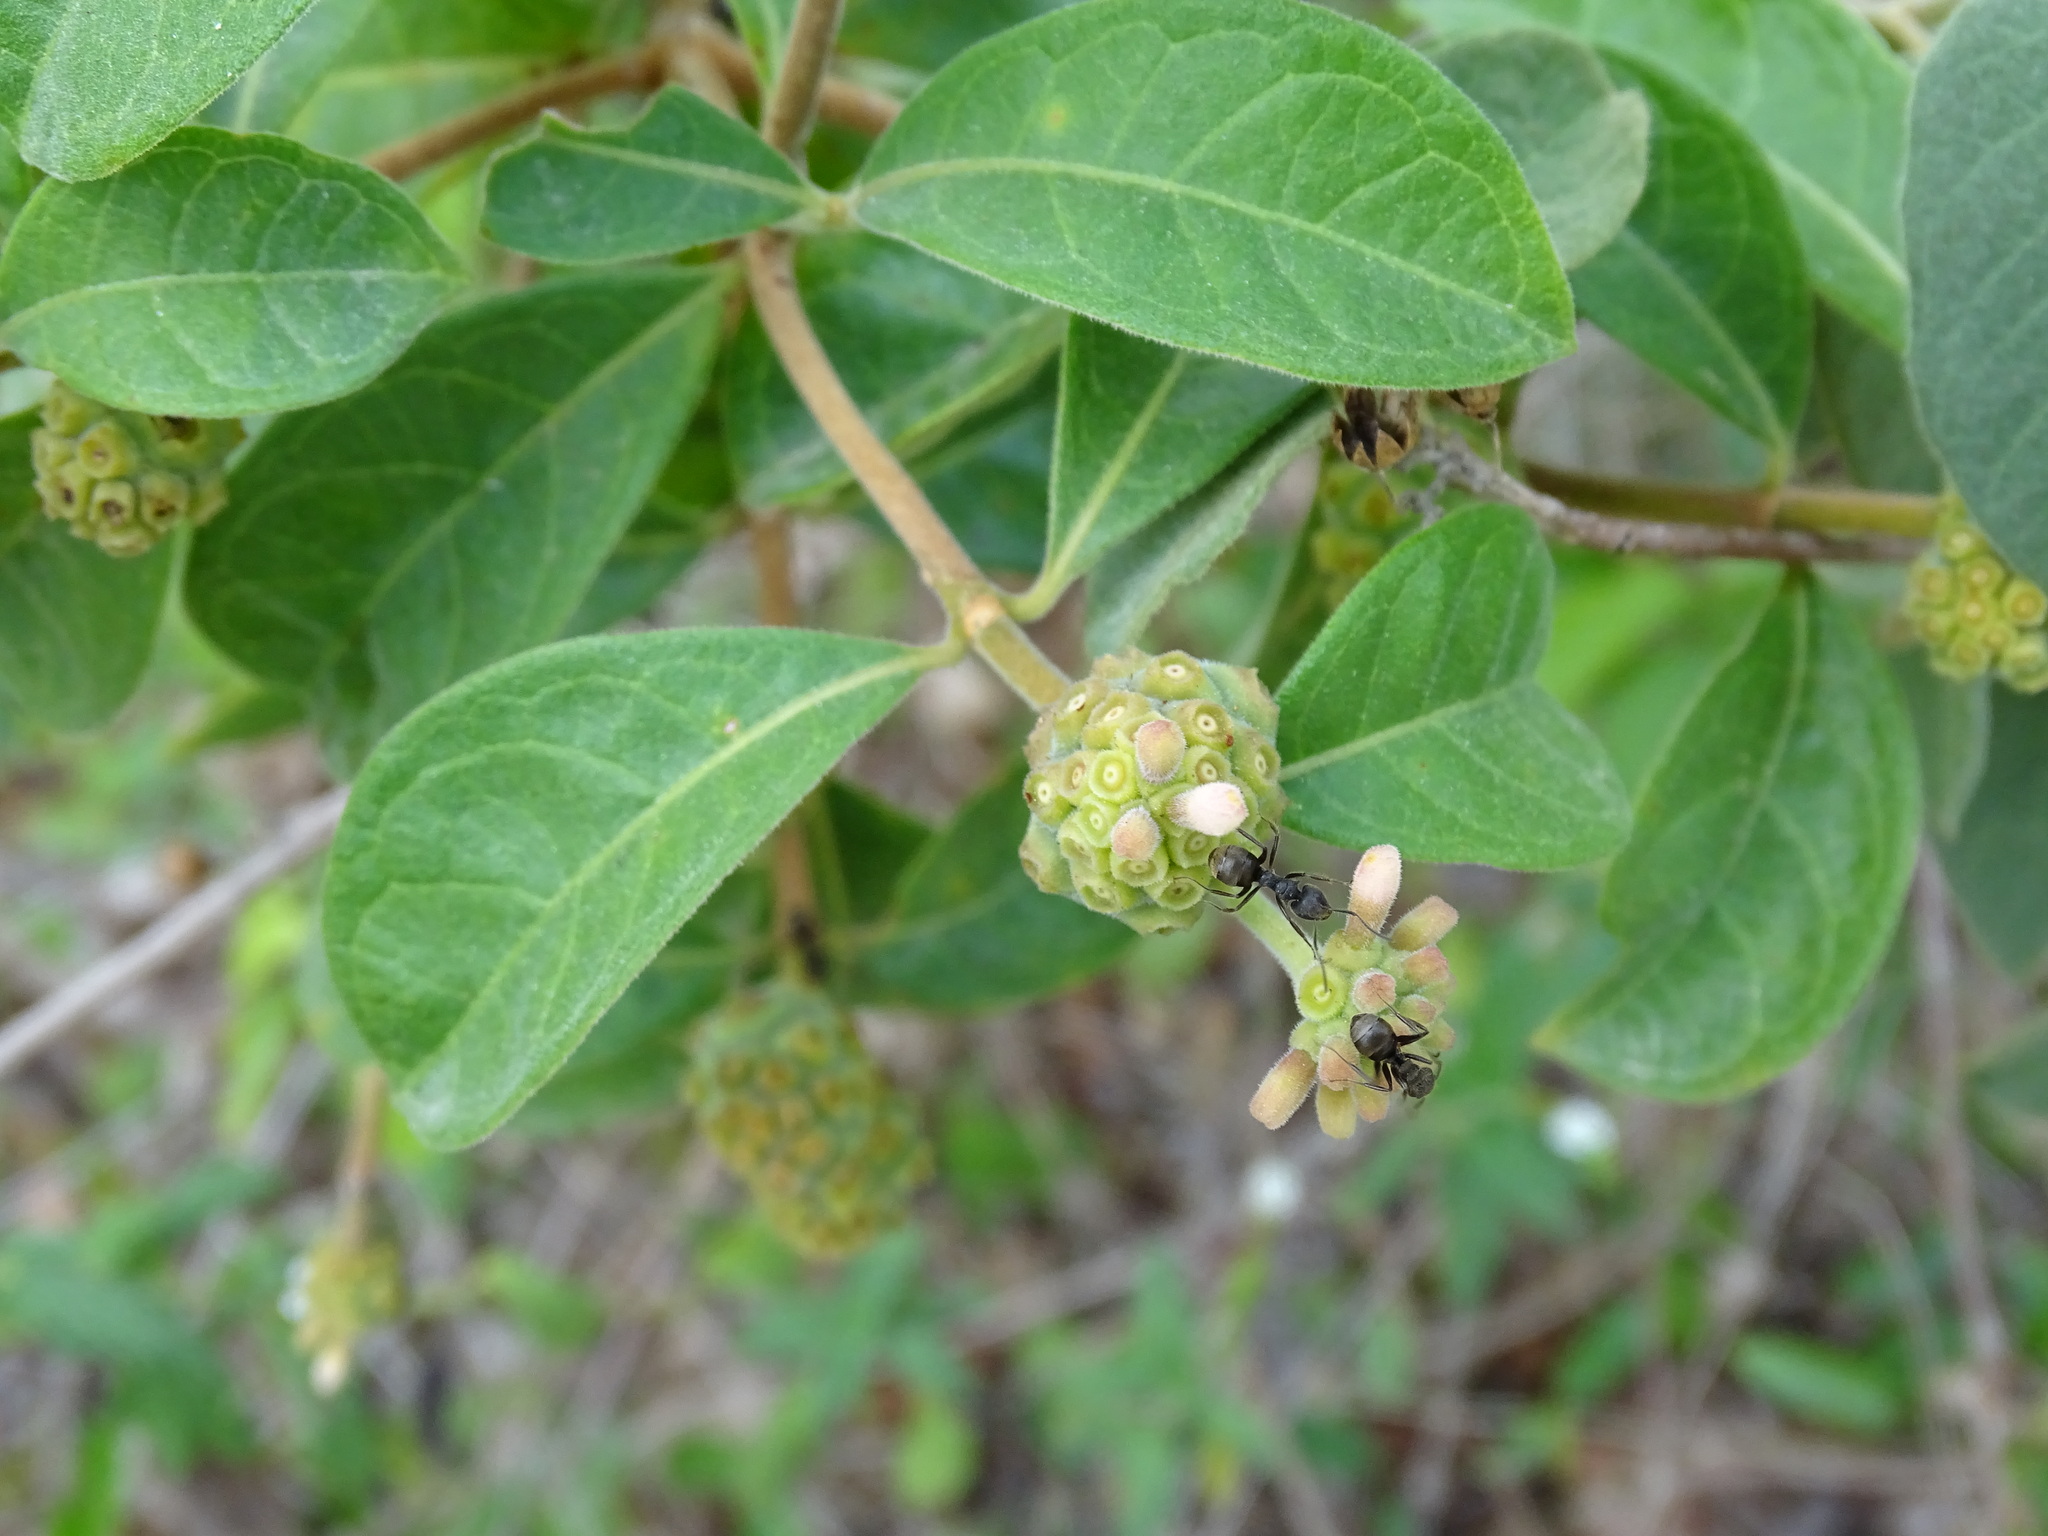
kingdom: Plantae
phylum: Tracheophyta
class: Magnoliopsida
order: Gentianales
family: Rubiaceae
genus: Morinda
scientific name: Morinda royoc
